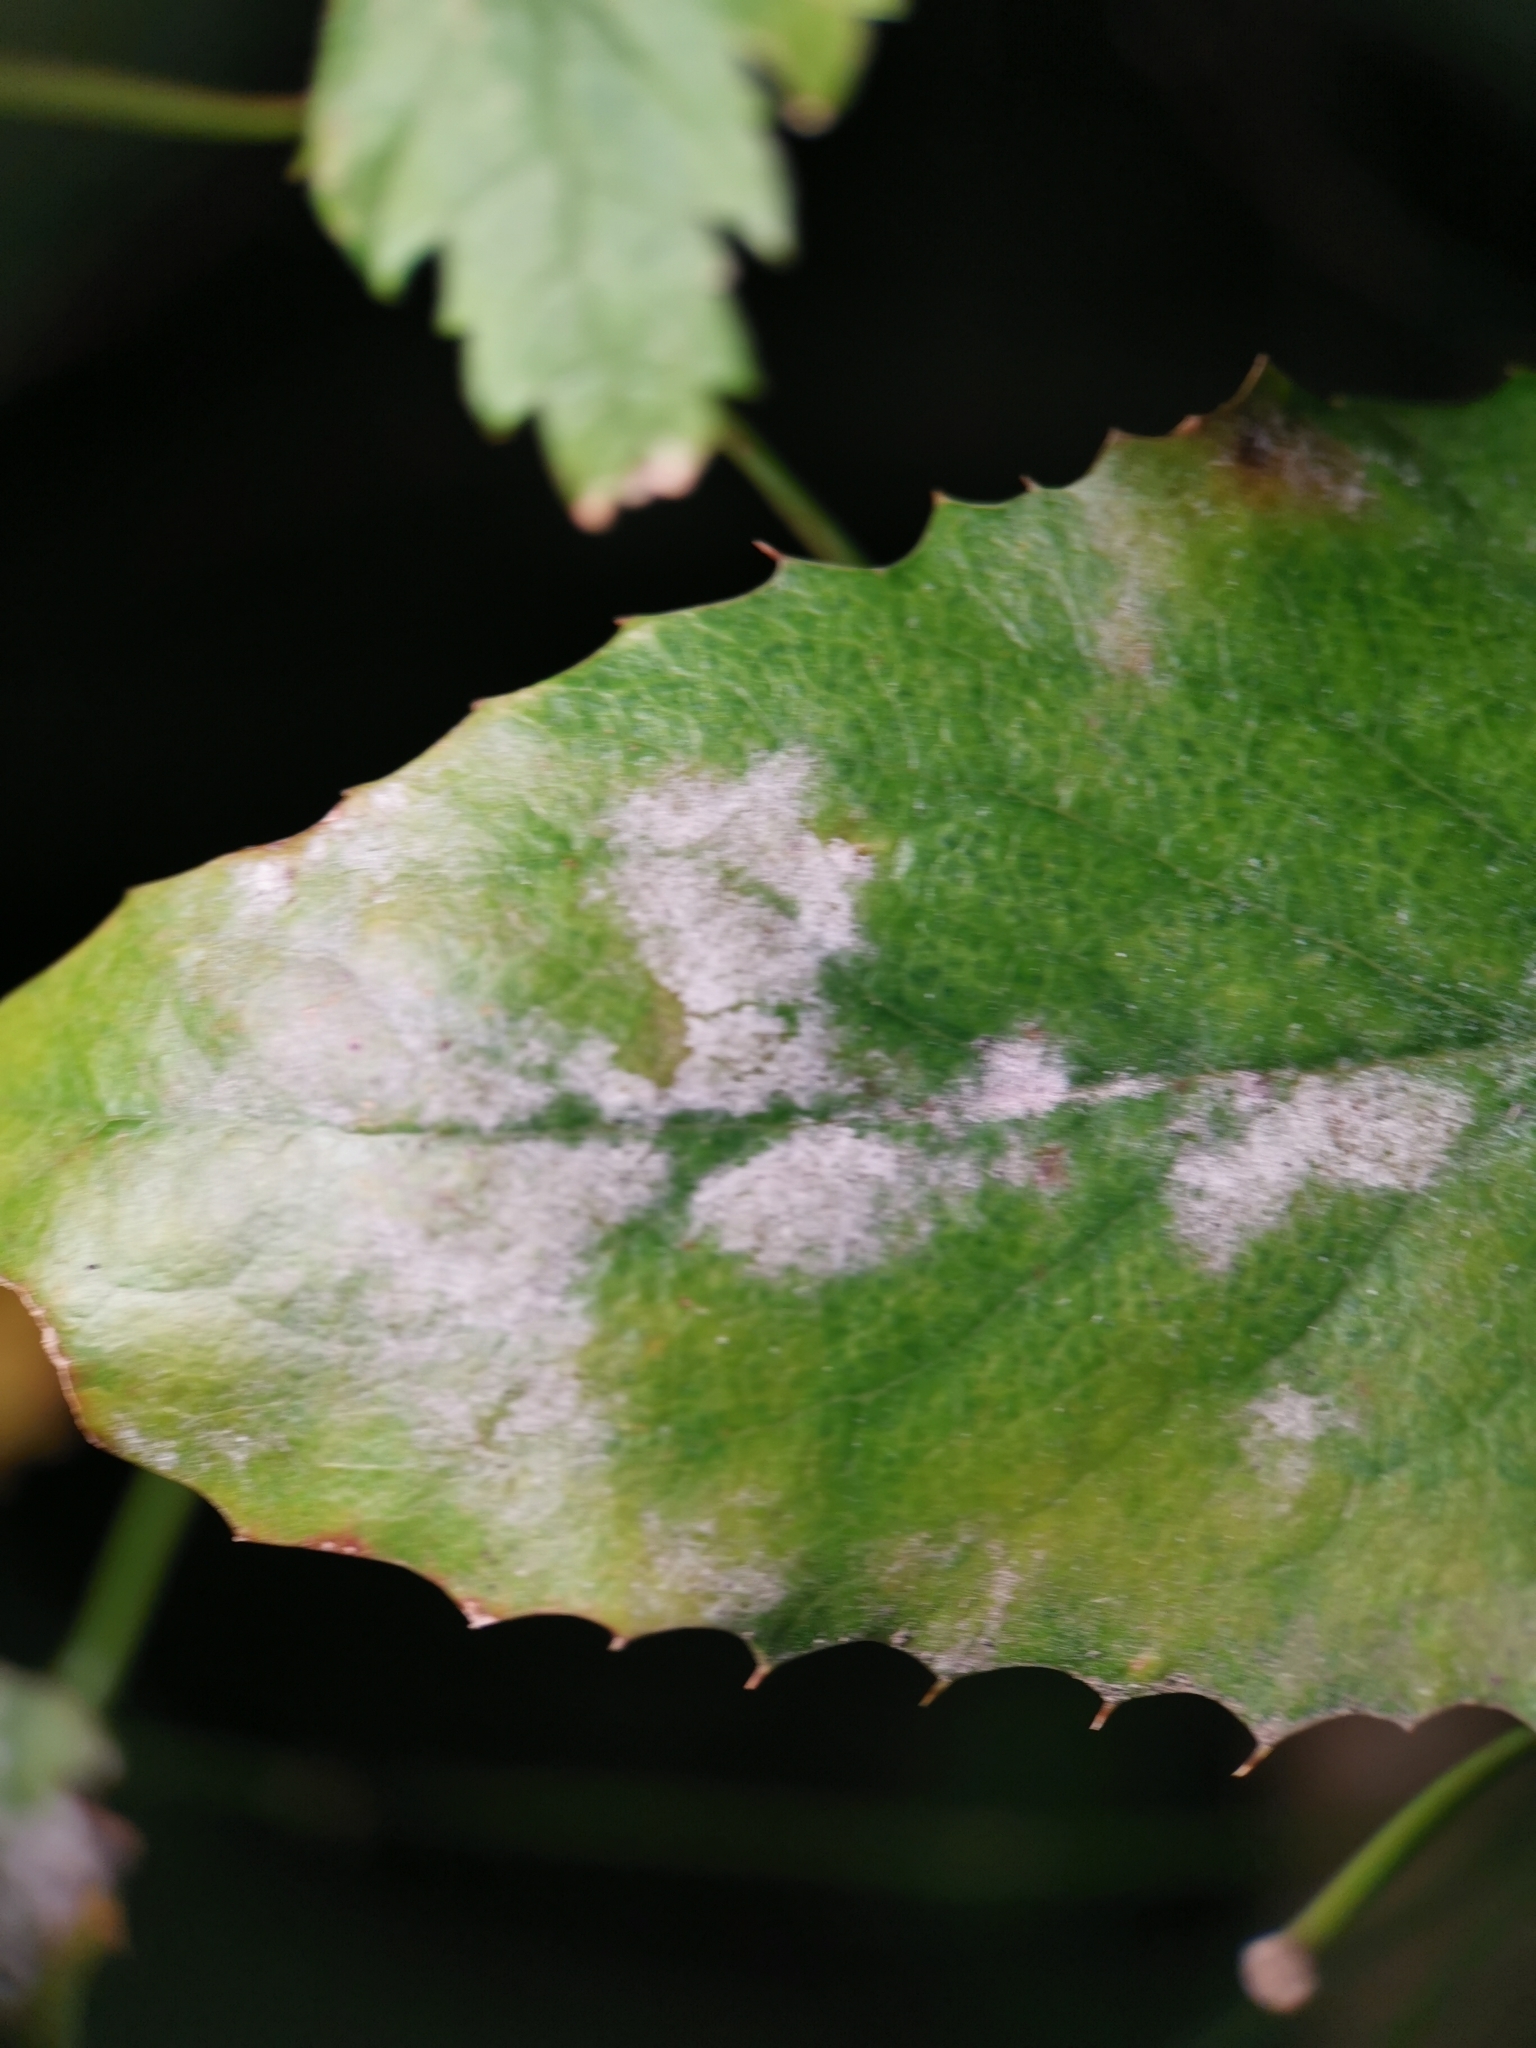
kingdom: Fungi
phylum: Ascomycota
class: Leotiomycetes
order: Helotiales
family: Erysiphaceae
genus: Erysiphe
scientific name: Erysiphe berberidis
